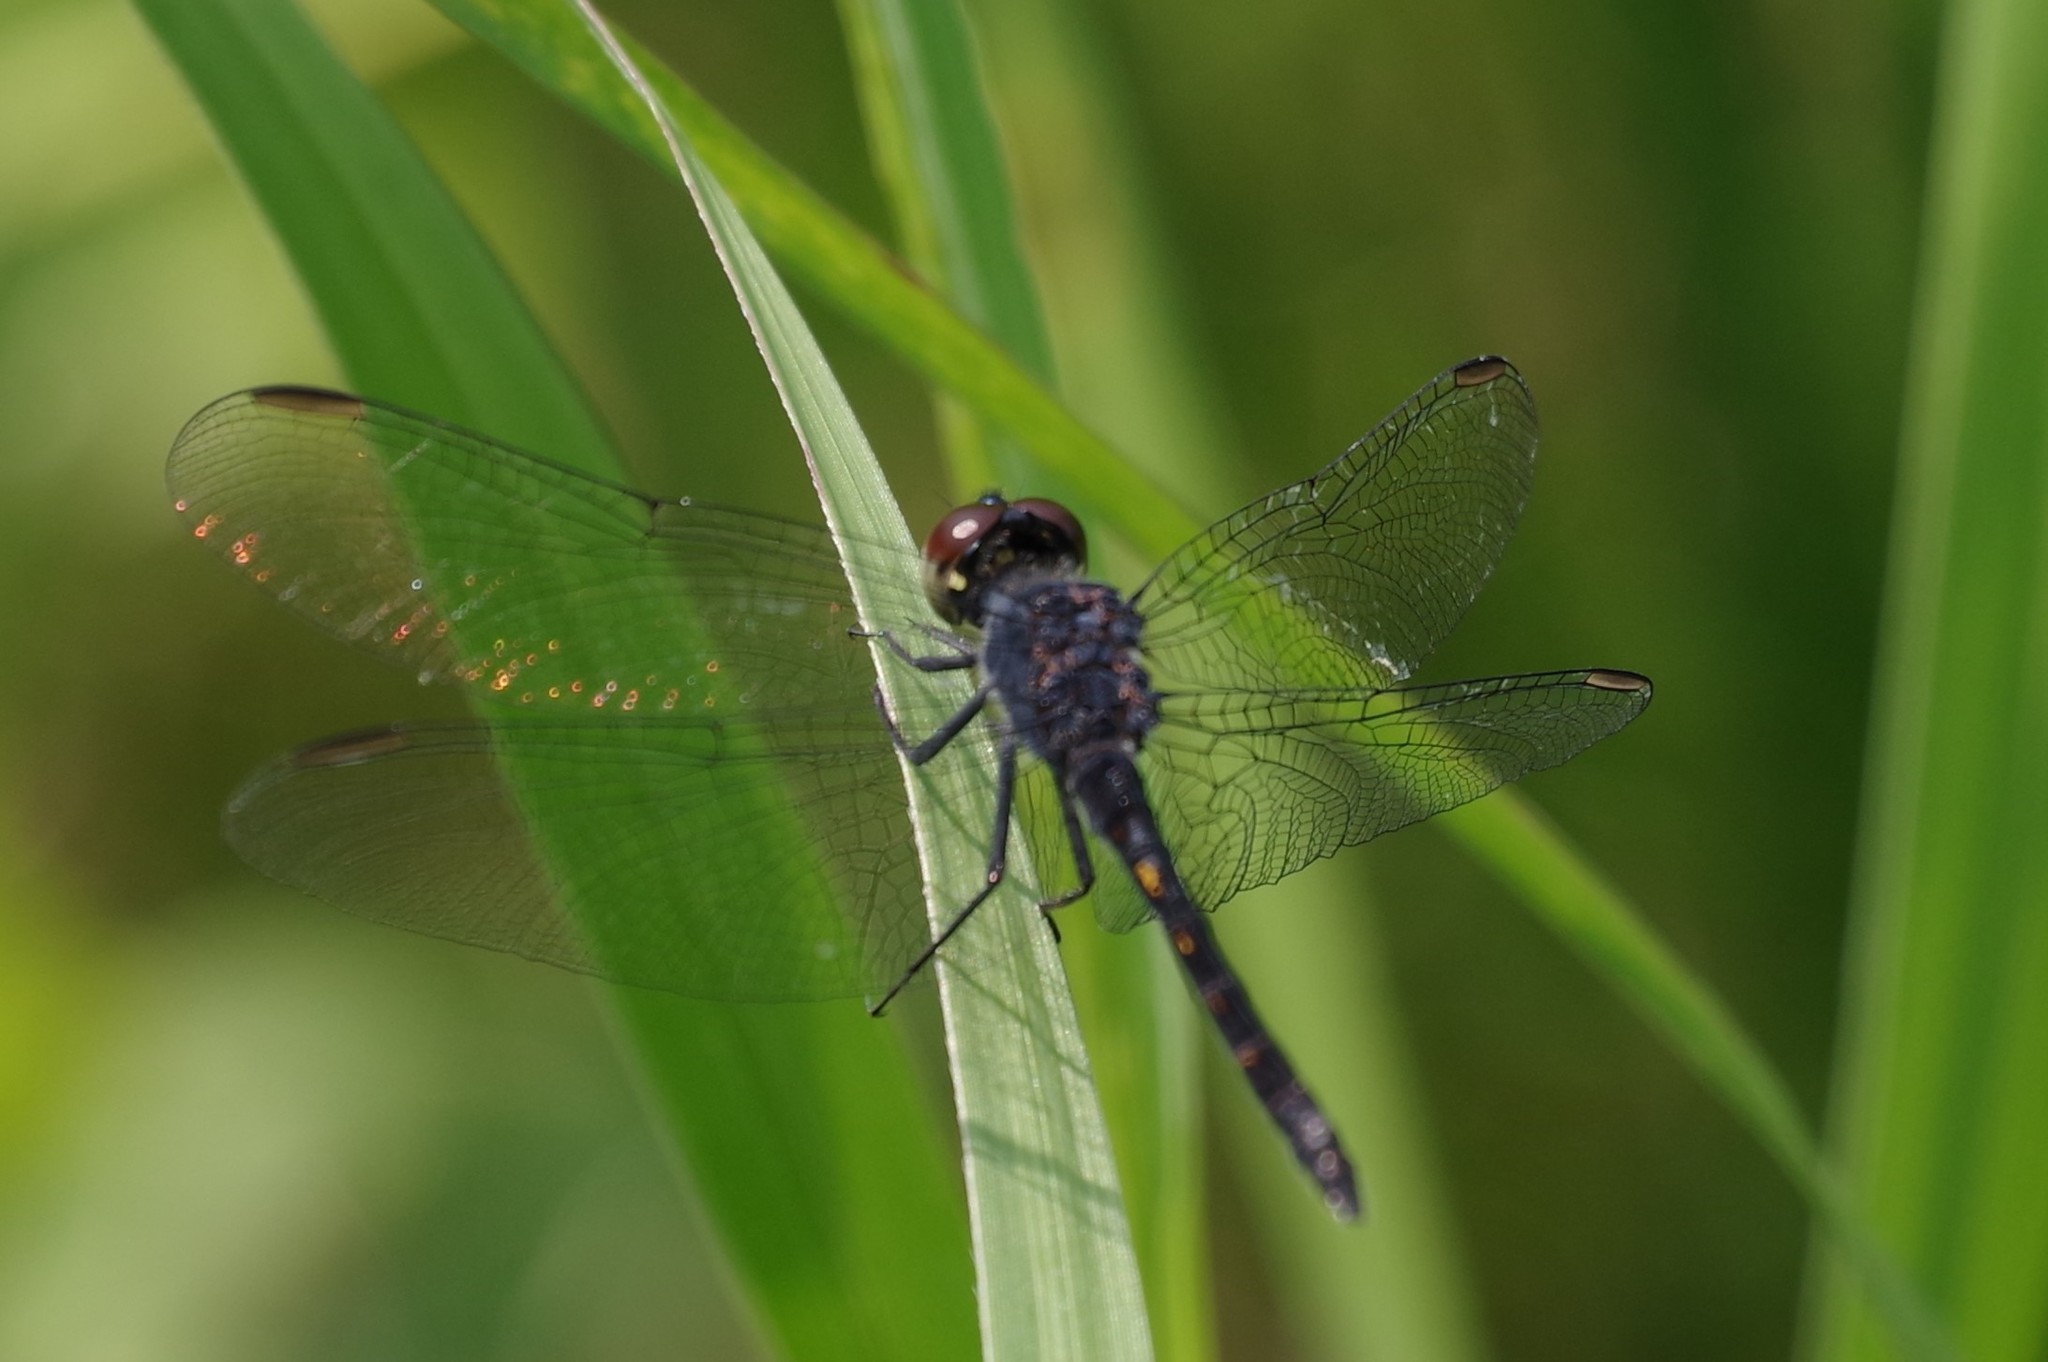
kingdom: Animalia
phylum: Arthropoda
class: Insecta
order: Odonata
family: Libellulidae
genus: Erythrodiplax
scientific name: Erythrodiplax berenice
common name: Seaside dragonlet
